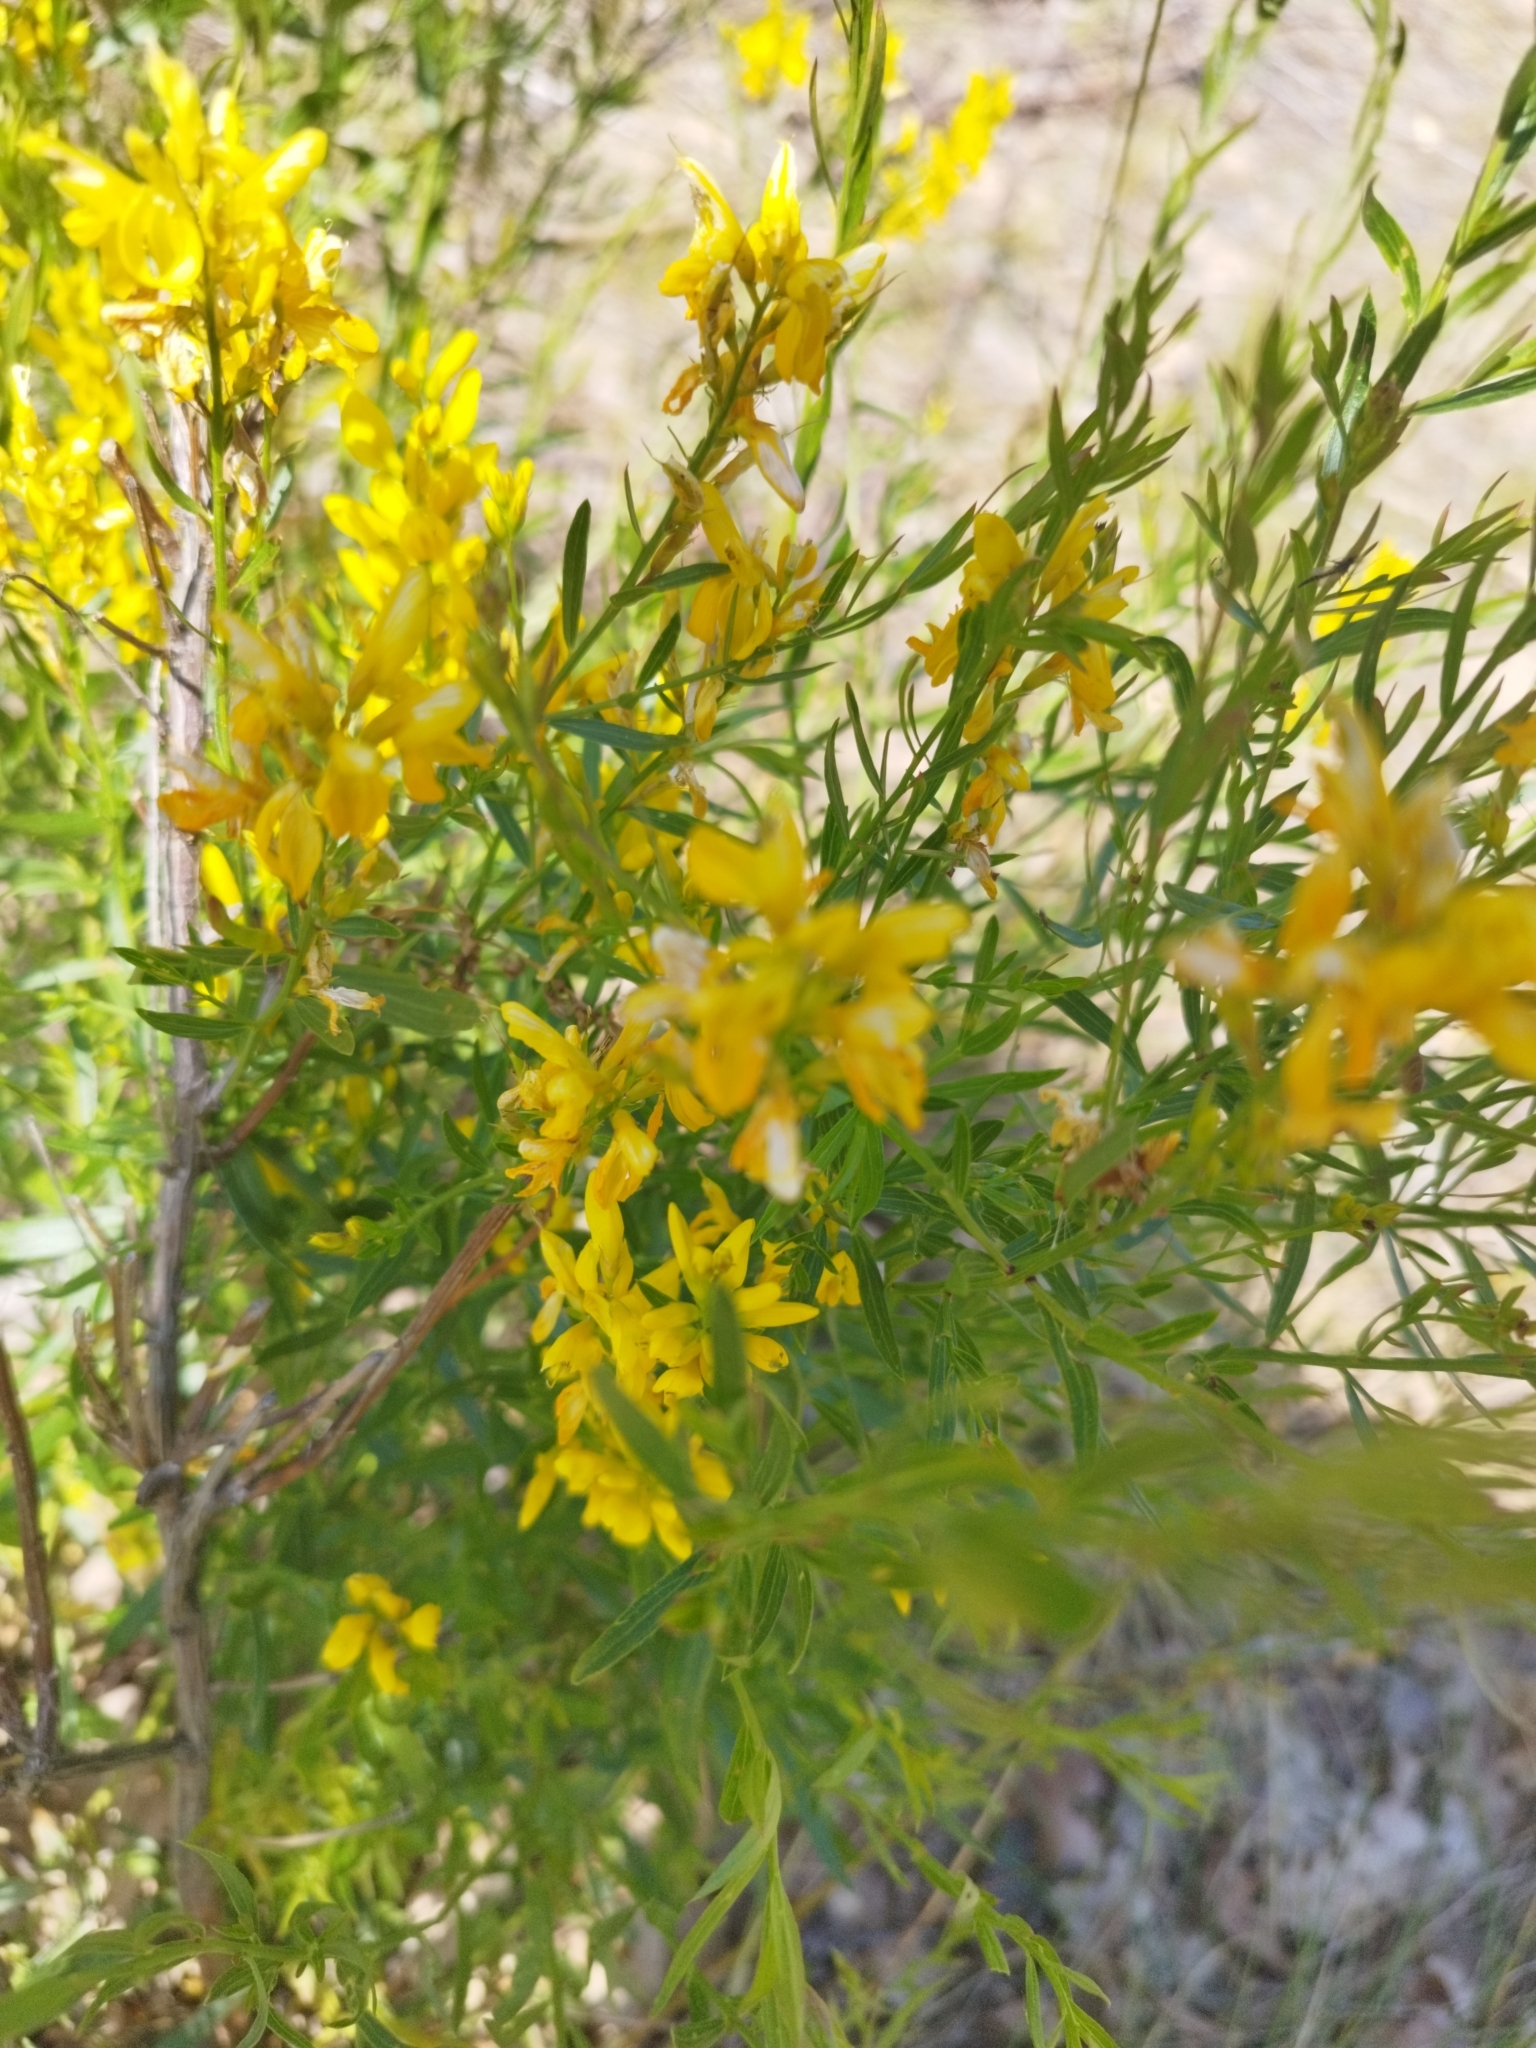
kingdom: Plantae
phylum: Tracheophyta
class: Magnoliopsida
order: Fabales
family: Fabaceae
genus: Genista
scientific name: Genista tinctoria
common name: Dyer's greenweed
